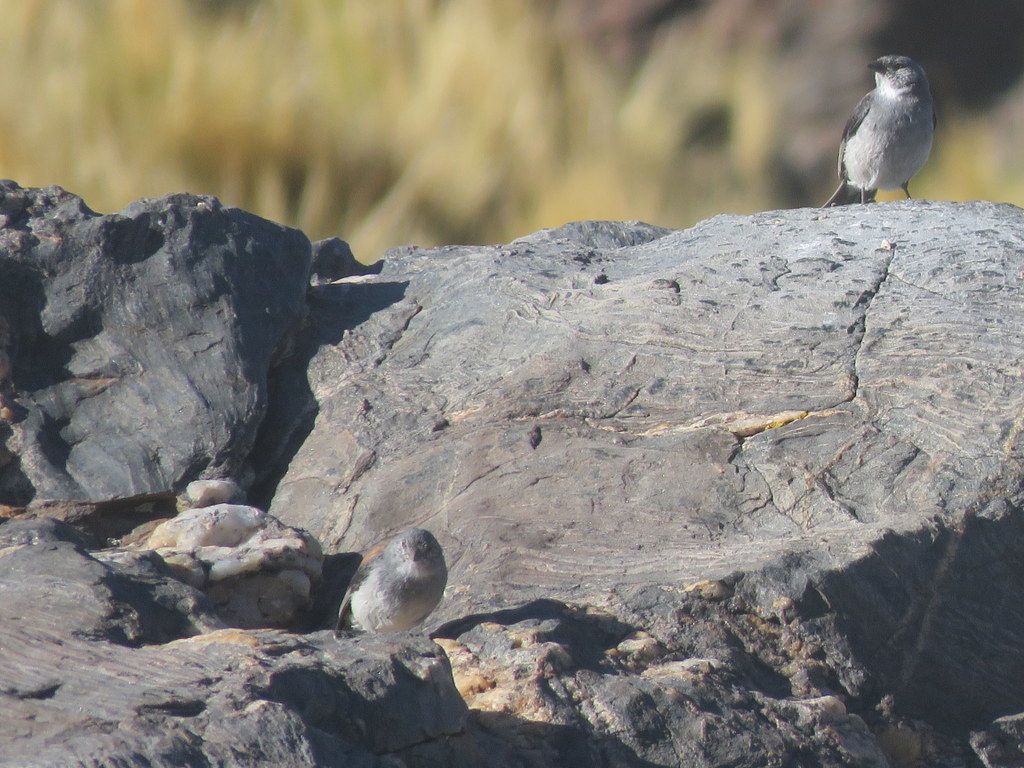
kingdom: Animalia
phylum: Chordata
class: Aves
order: Passeriformes
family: Thraupidae
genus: Idiopsar
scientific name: Idiopsar dorsalis
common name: Red-backed sierra finch
